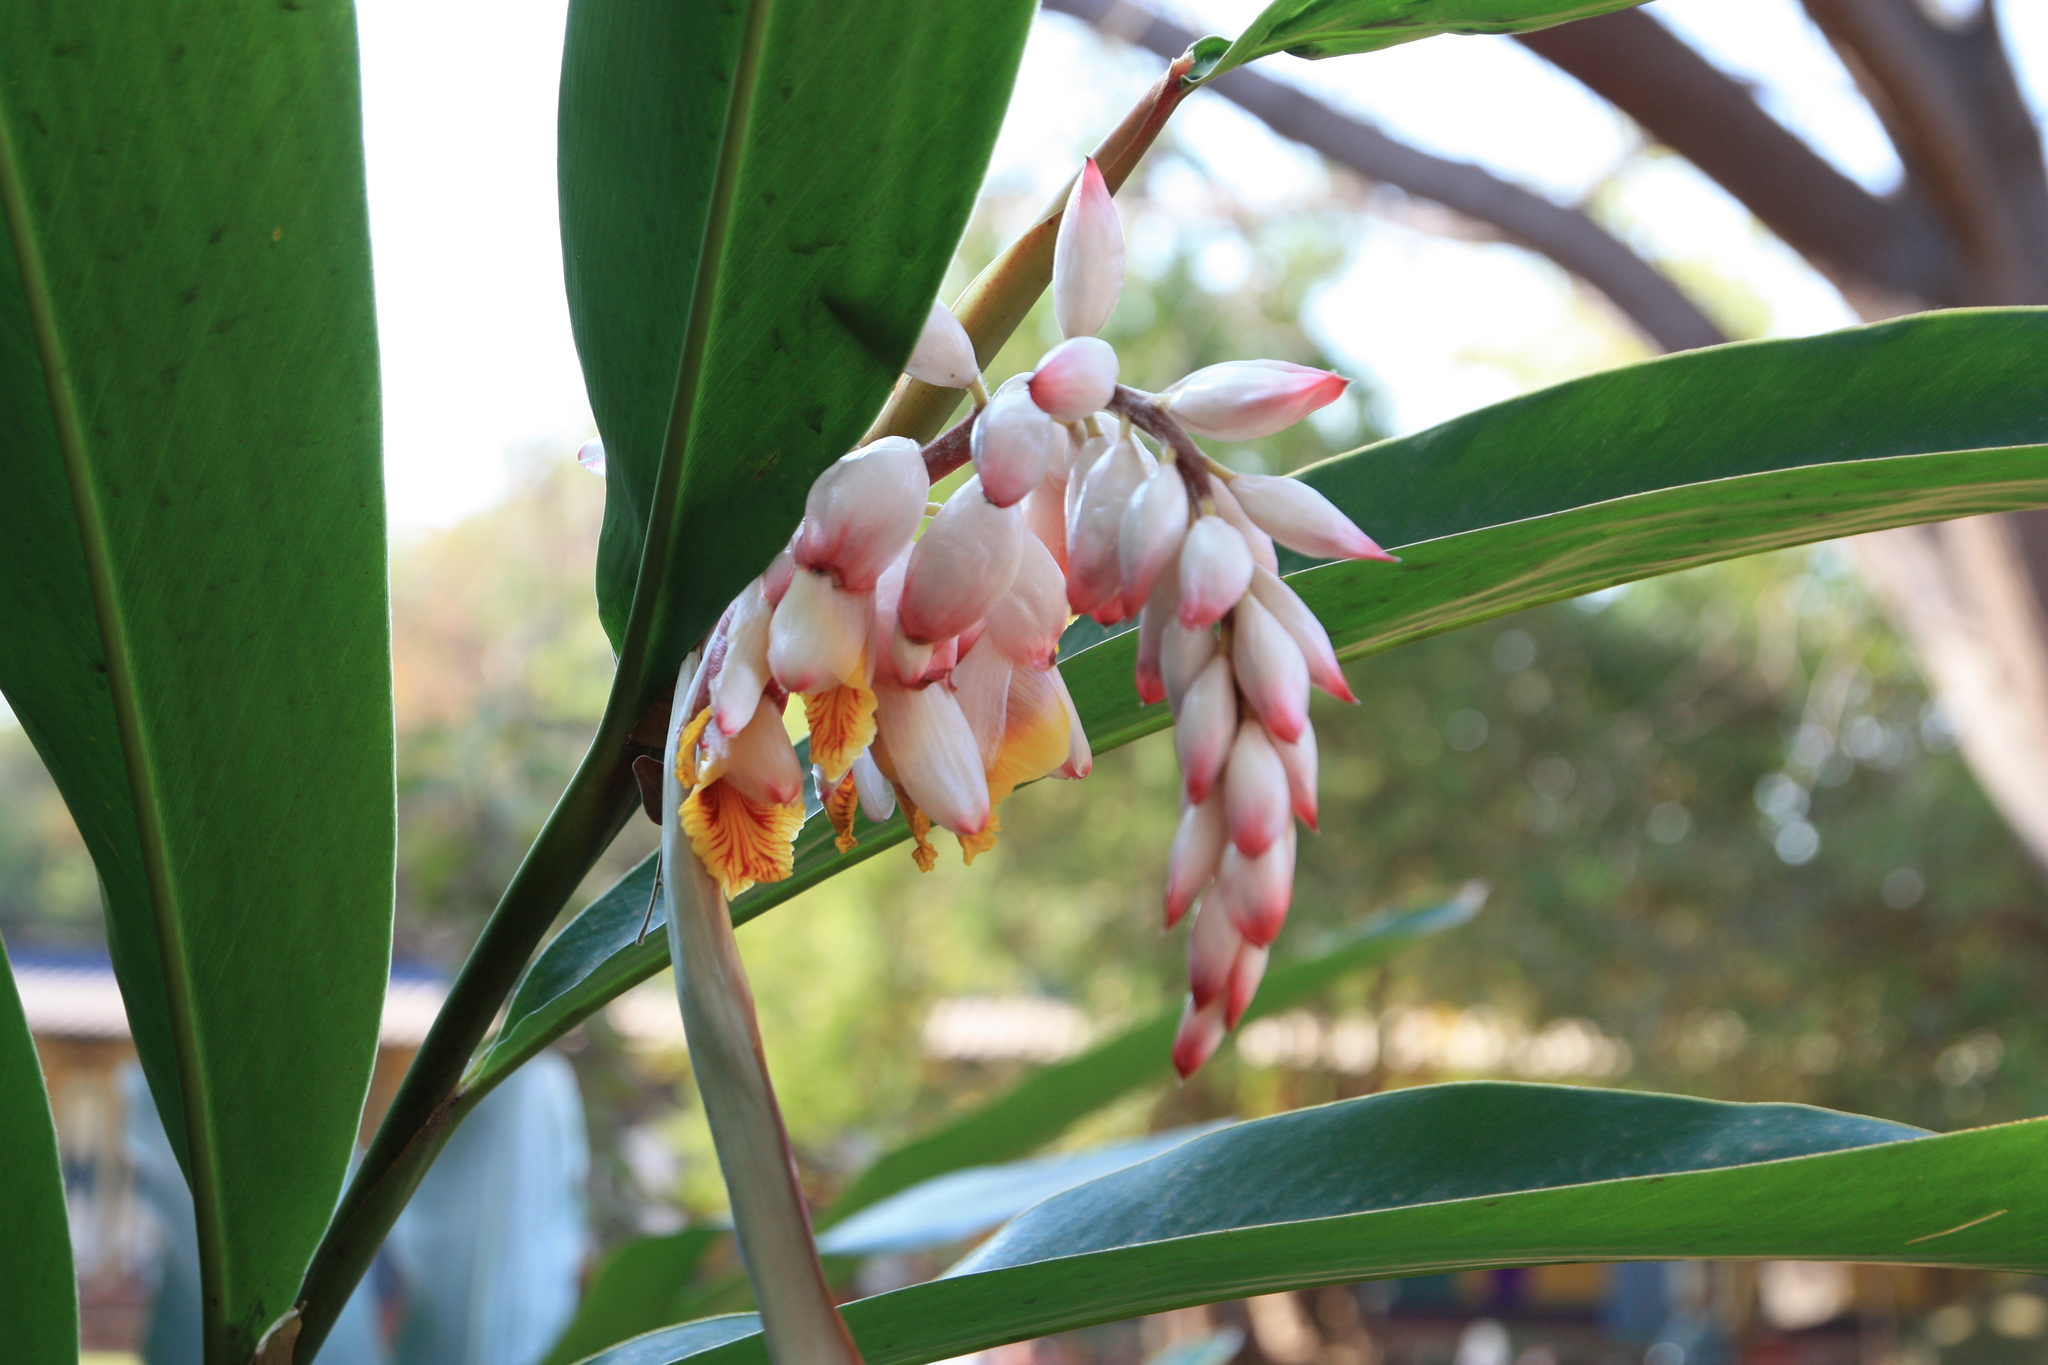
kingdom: Plantae
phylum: Tracheophyta
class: Liliopsida
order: Zingiberales
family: Zingiberaceae
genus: Alpinia
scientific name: Alpinia zerumbet
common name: Shellplant
